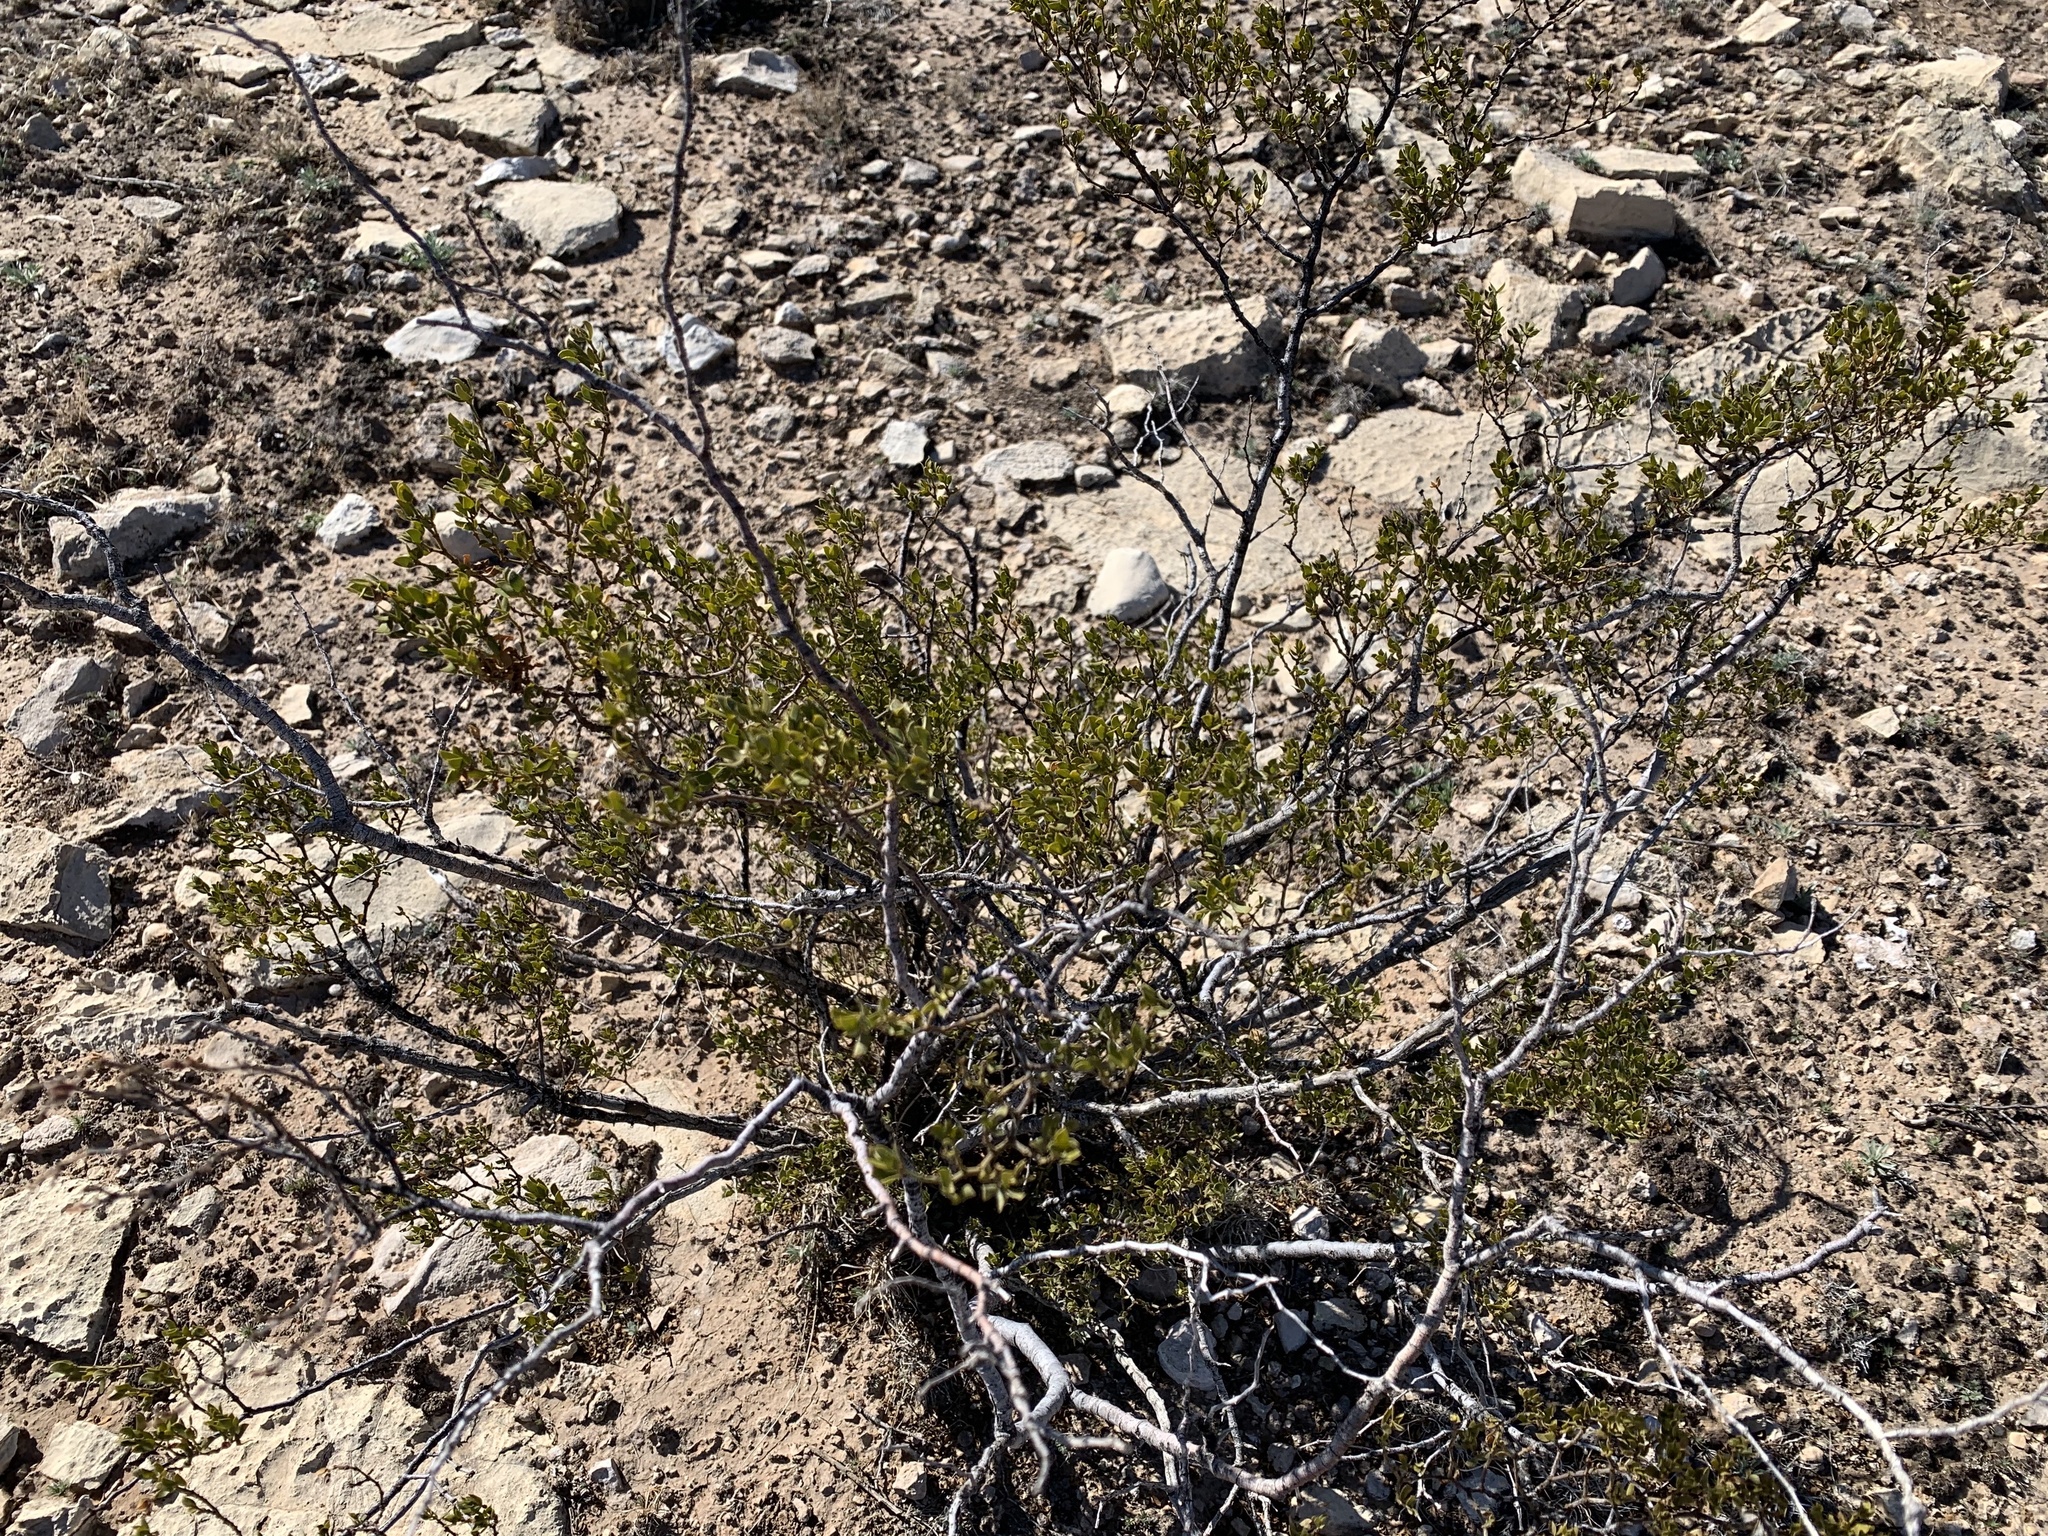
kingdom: Plantae
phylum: Tracheophyta
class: Magnoliopsida
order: Zygophyllales
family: Zygophyllaceae
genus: Larrea
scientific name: Larrea tridentata
